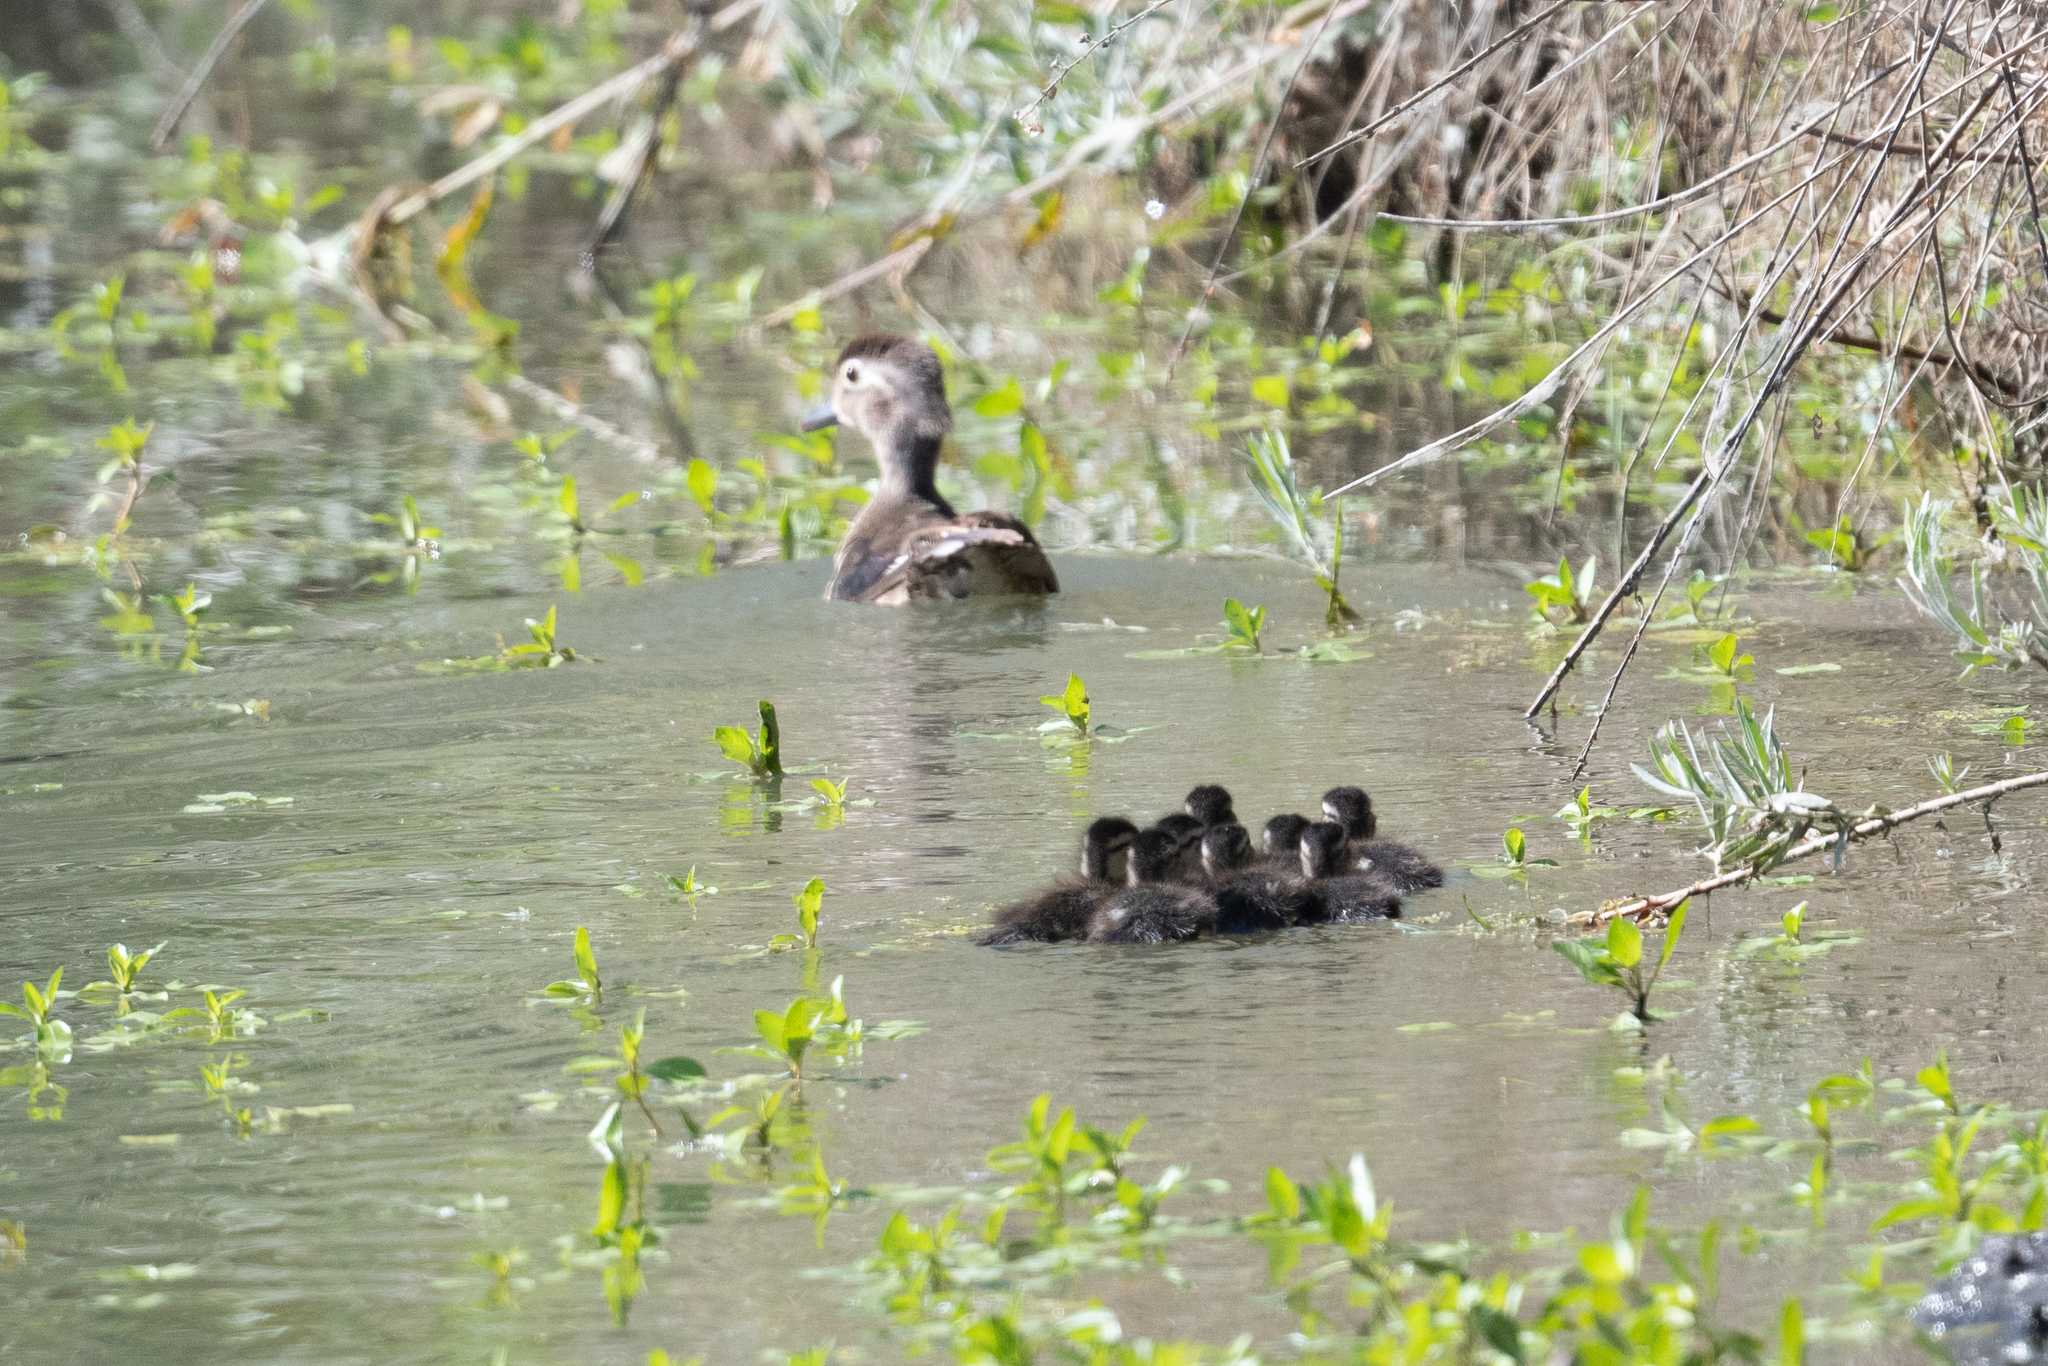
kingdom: Animalia
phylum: Chordata
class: Aves
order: Anseriformes
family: Anatidae
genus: Aix
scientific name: Aix sponsa
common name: Wood duck
